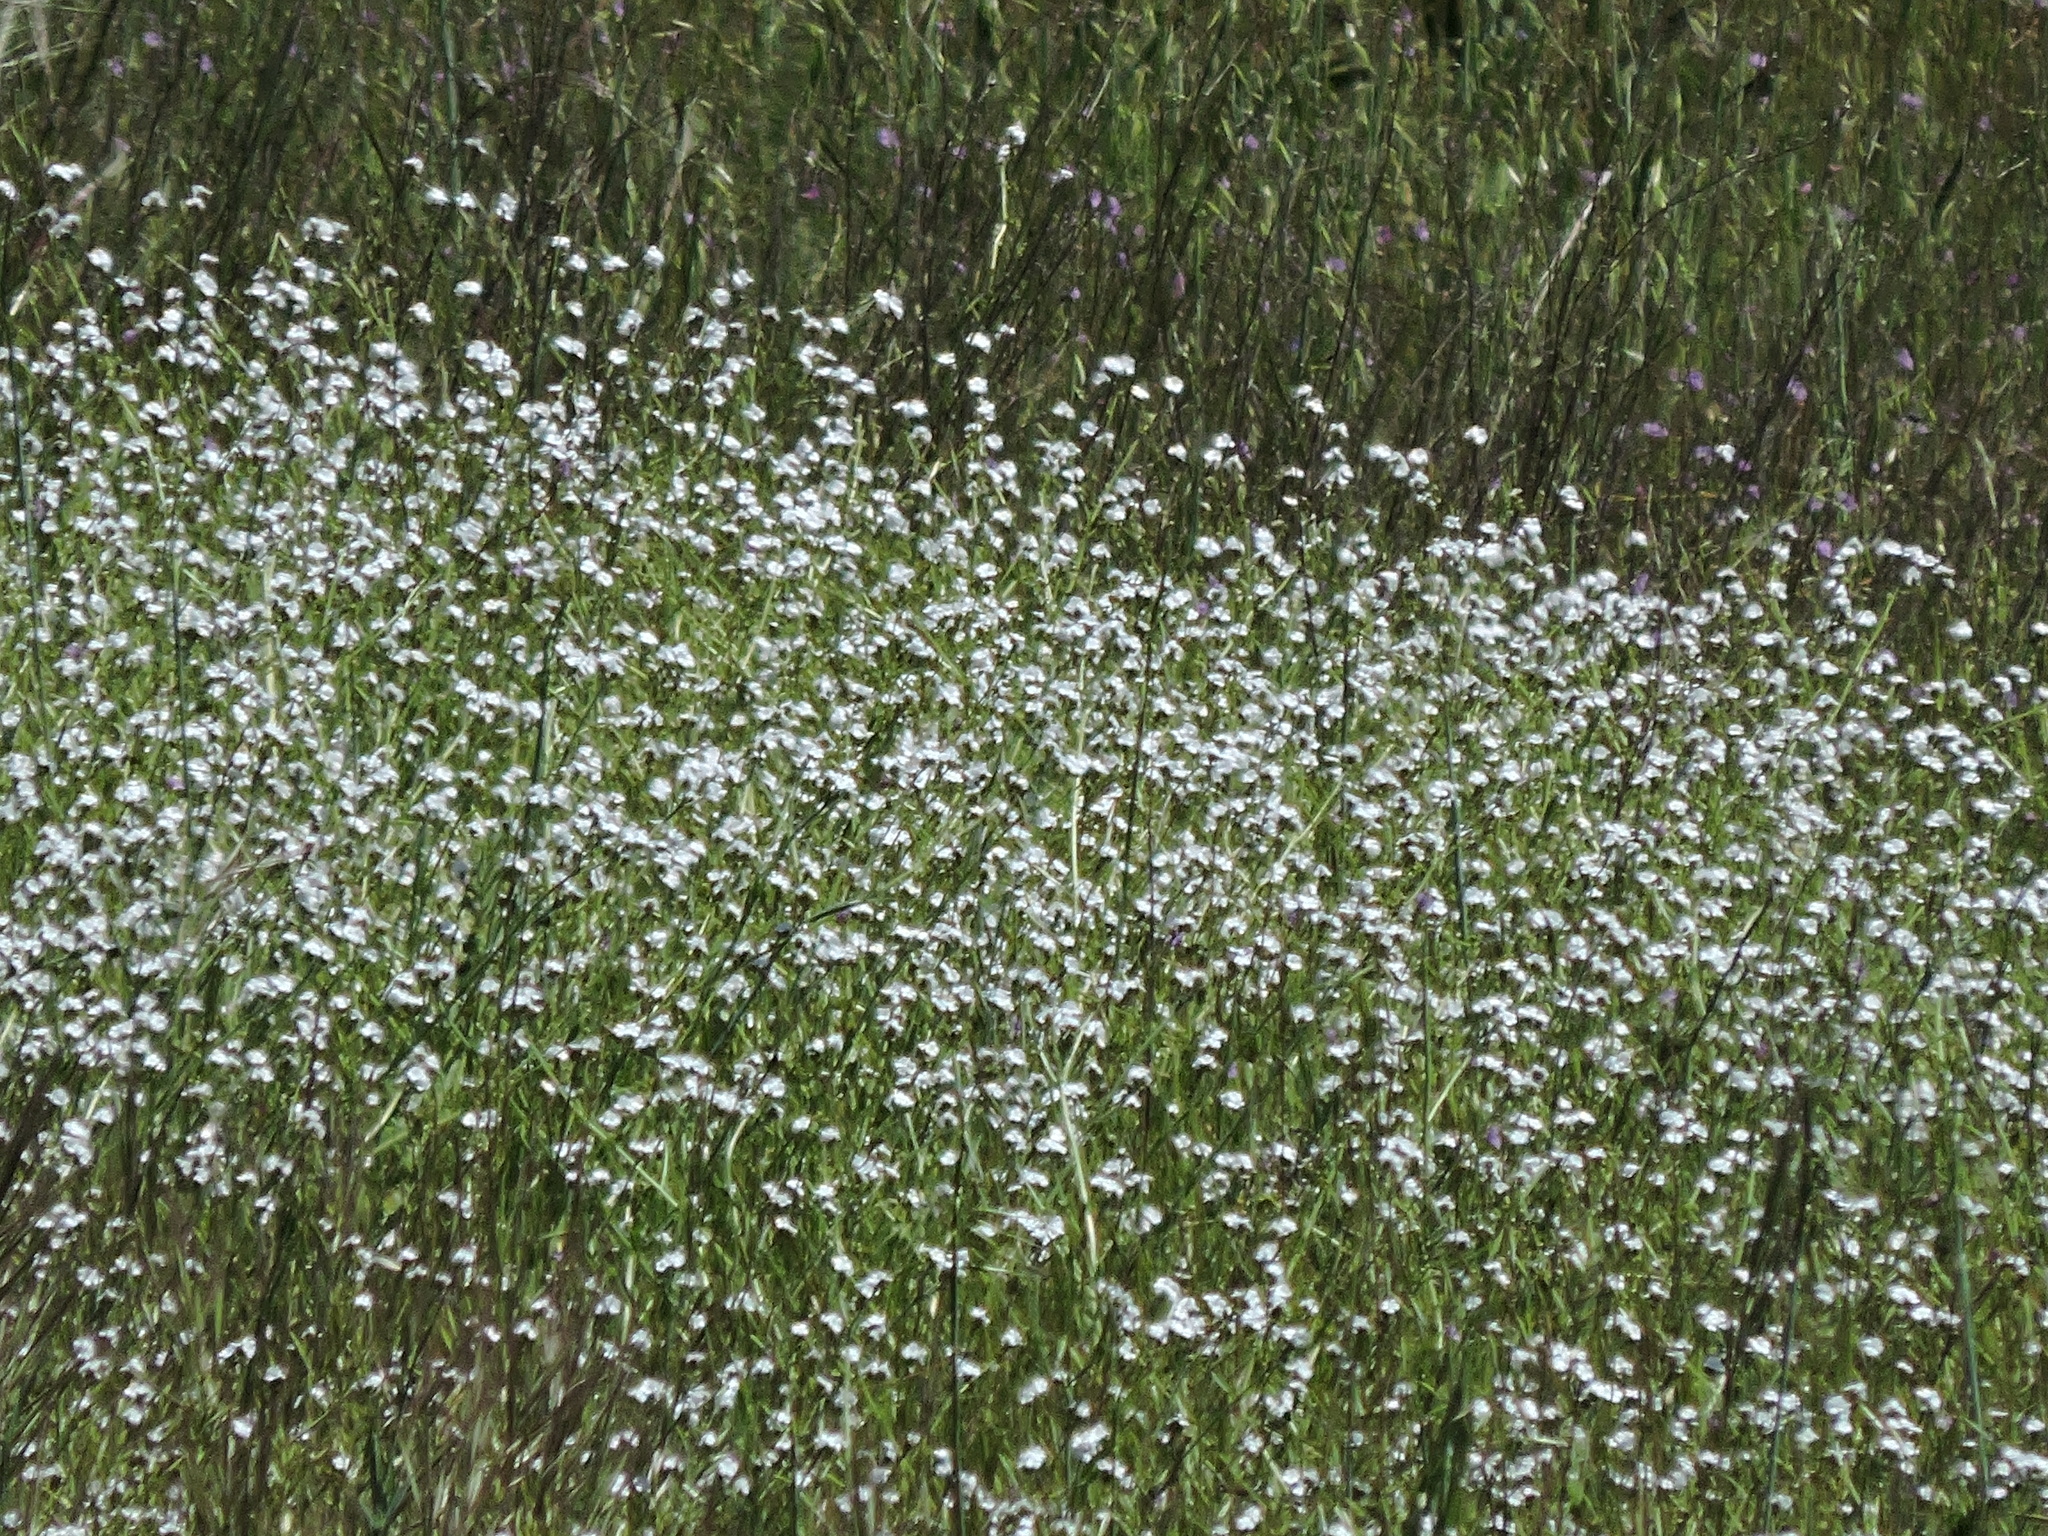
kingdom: Plantae
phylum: Tracheophyta
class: Magnoliopsida
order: Boraginales
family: Boraginaceae
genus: Plagiobothrys
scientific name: Plagiobothrys nothofulvus
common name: Popcorn-flower
